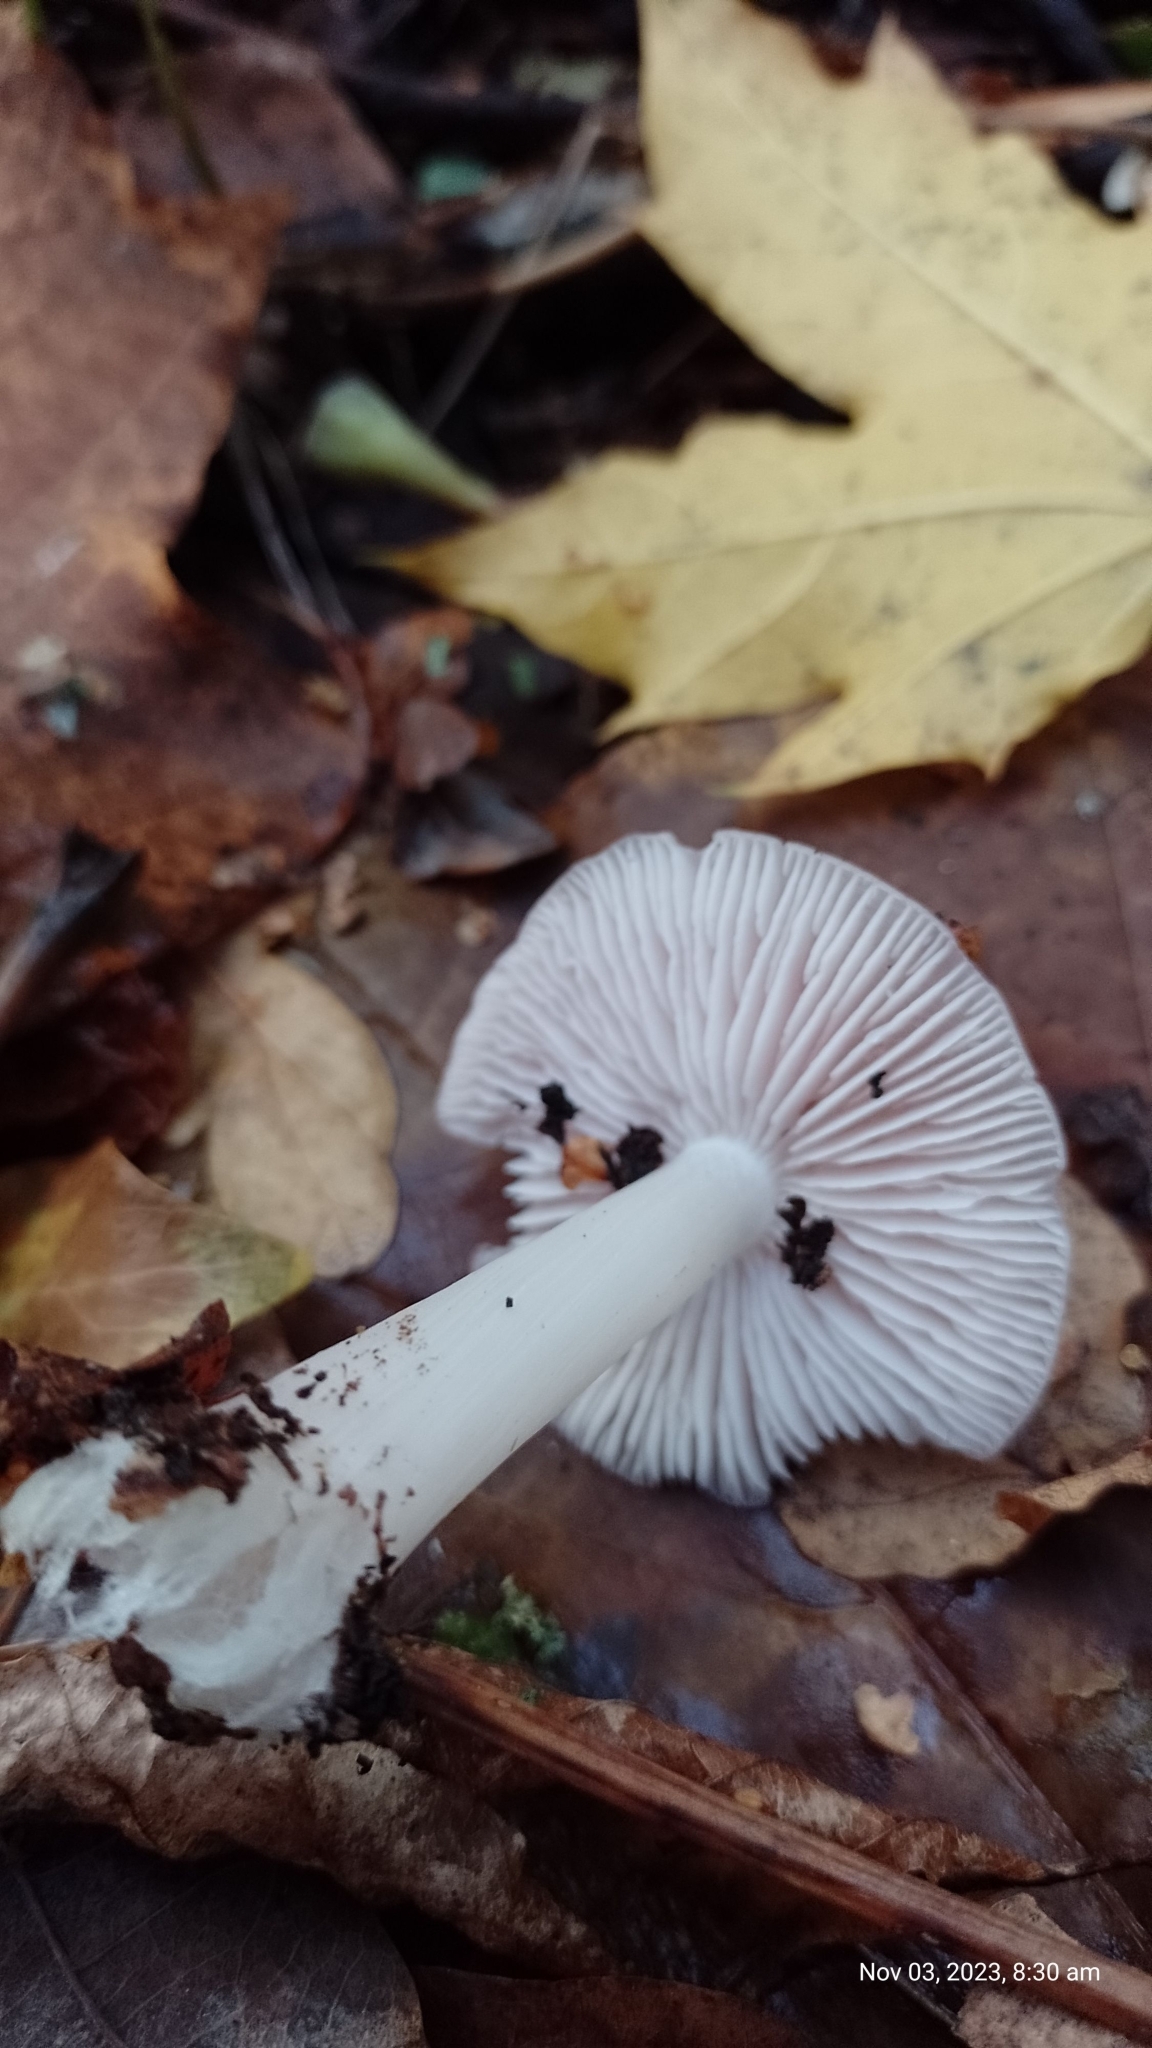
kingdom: Fungi
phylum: Basidiomycota
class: Agaricomycetes
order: Agaricales
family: Mycenaceae
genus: Mycena
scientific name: Mycena rosea
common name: Rosy bonnet
